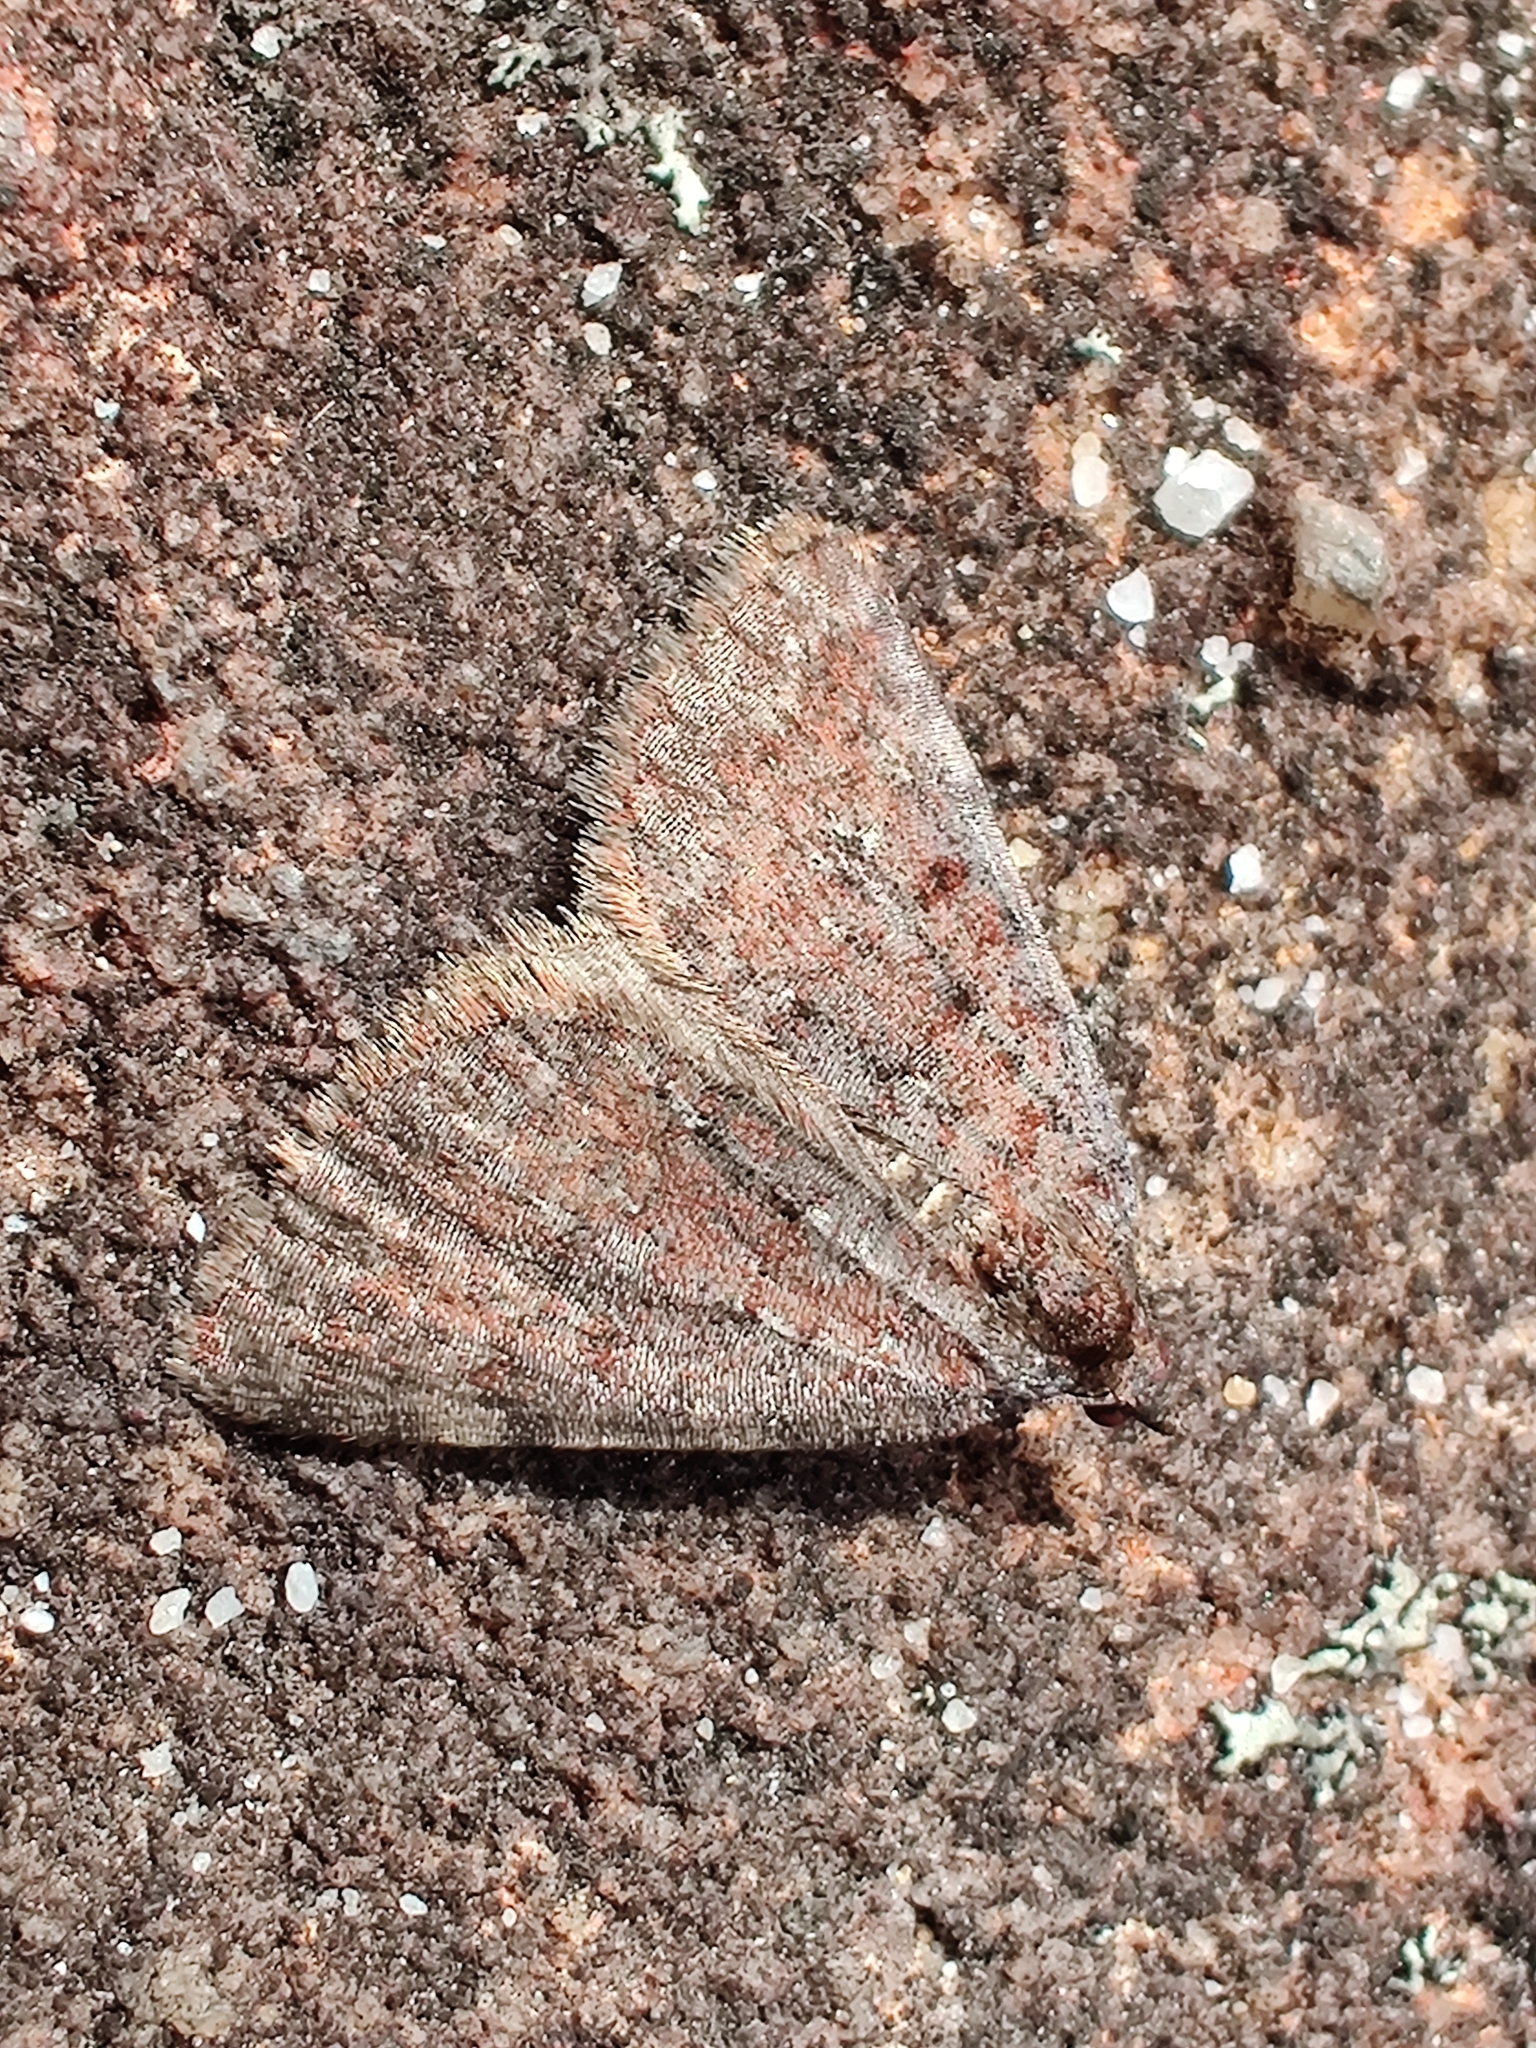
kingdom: Animalia
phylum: Arthropoda
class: Insecta
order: Lepidoptera
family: Geometridae
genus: Dichromodes
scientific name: Dichromodes disputata
